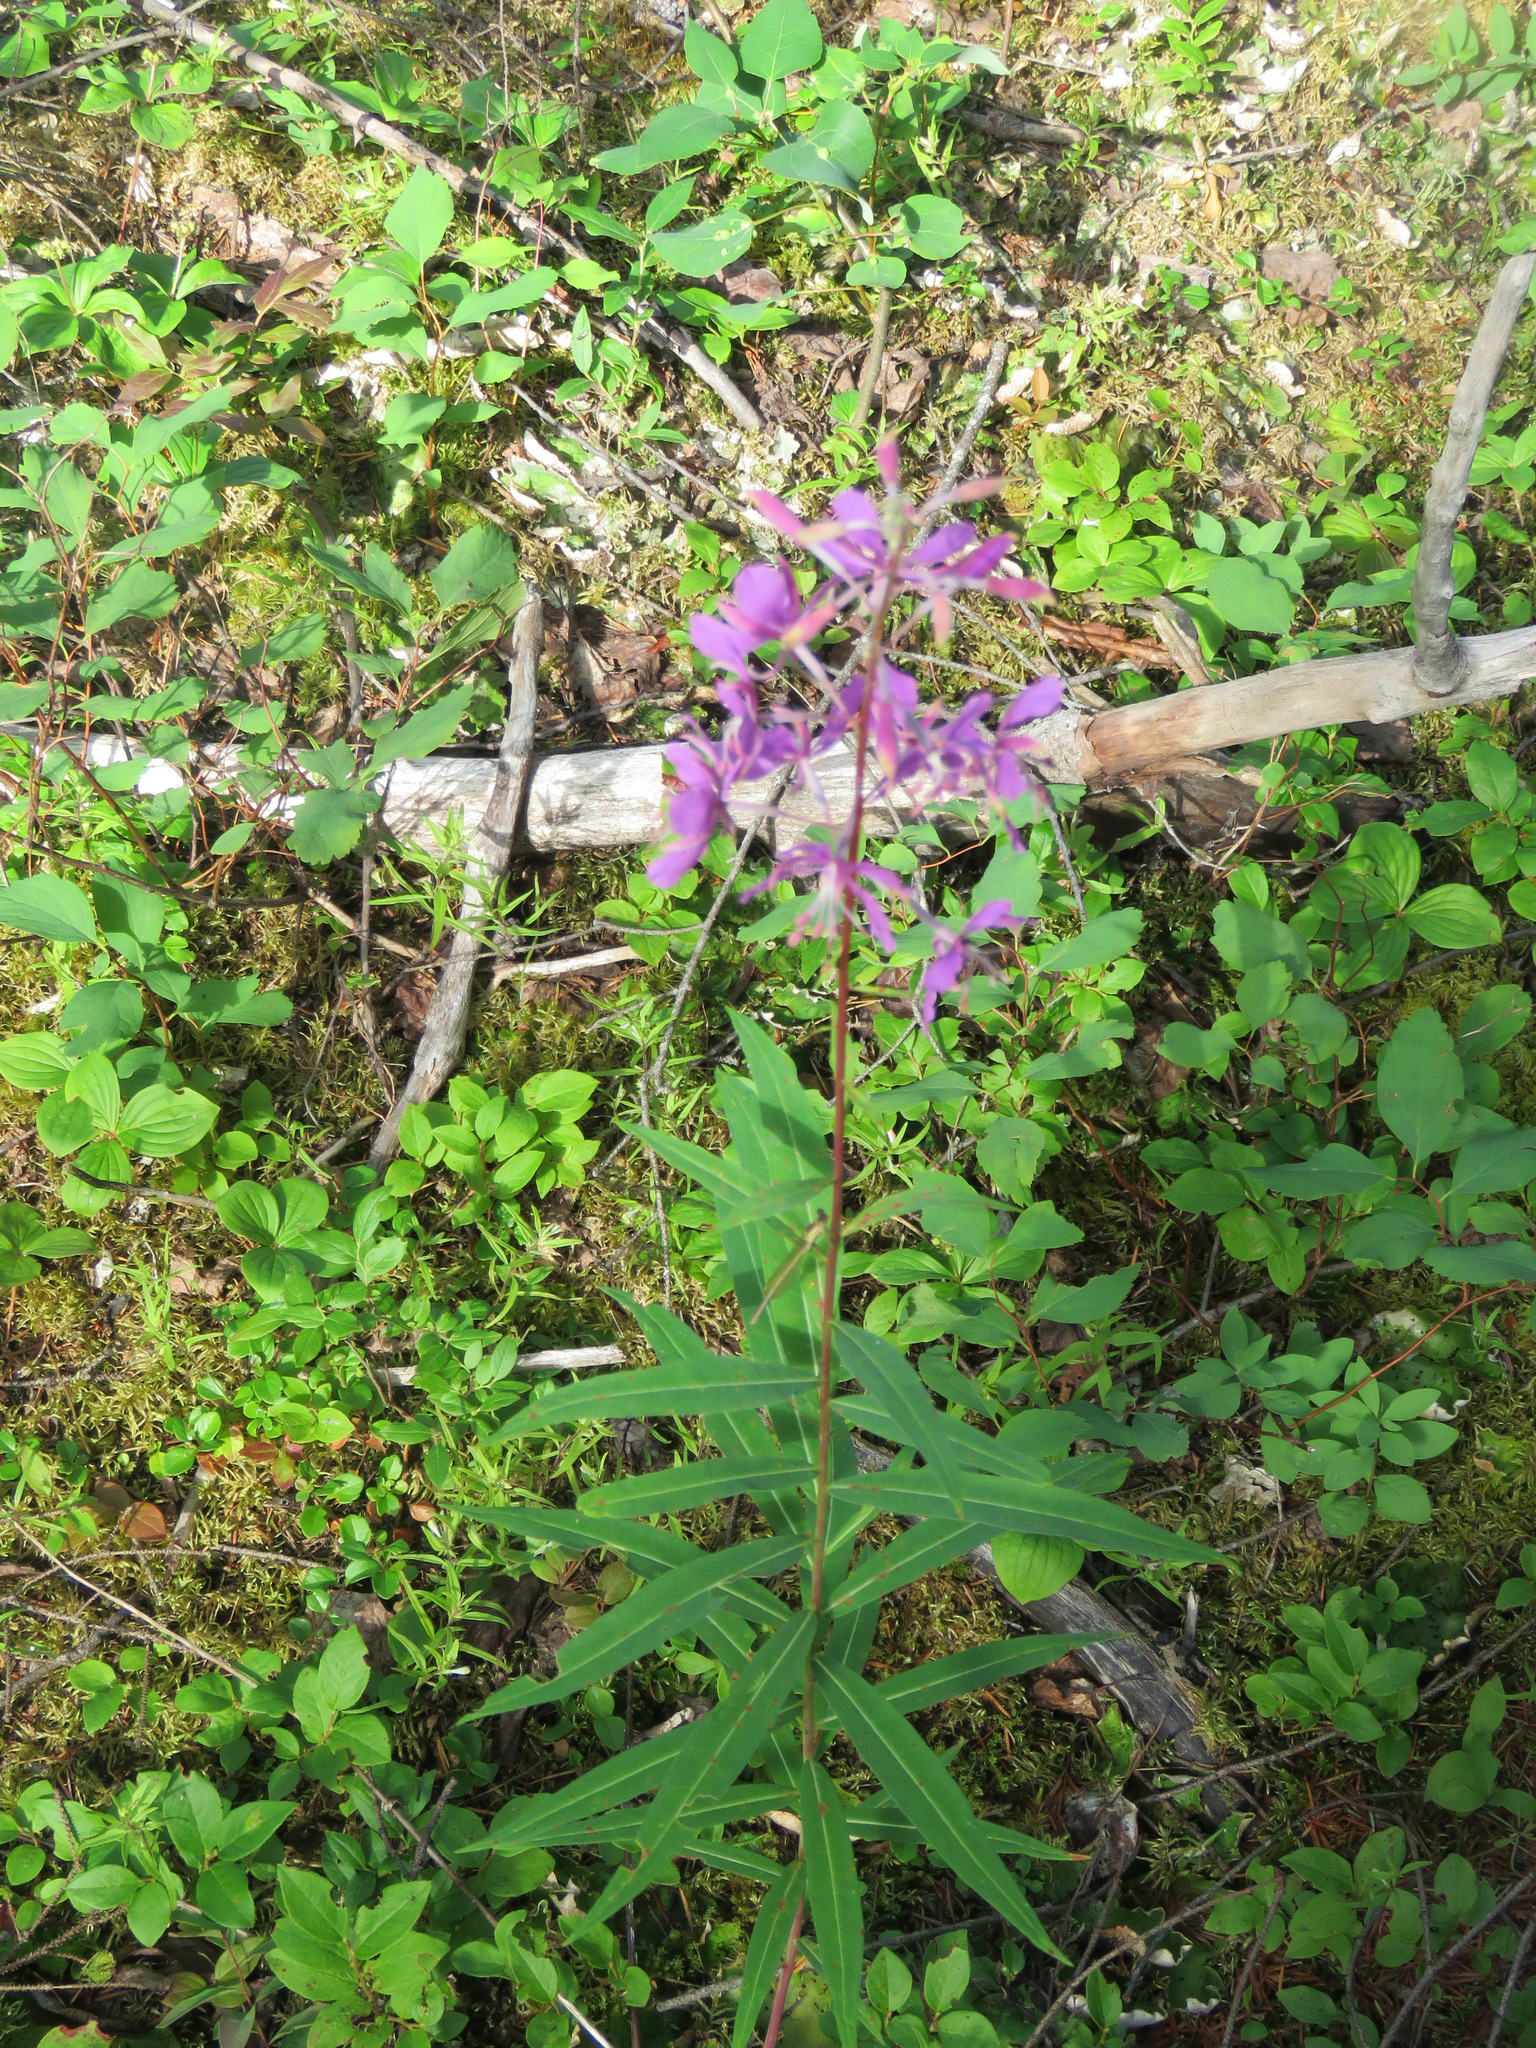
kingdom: Plantae
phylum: Tracheophyta
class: Magnoliopsida
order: Myrtales
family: Onagraceae
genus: Chamaenerion
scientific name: Chamaenerion angustifolium
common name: Fireweed
